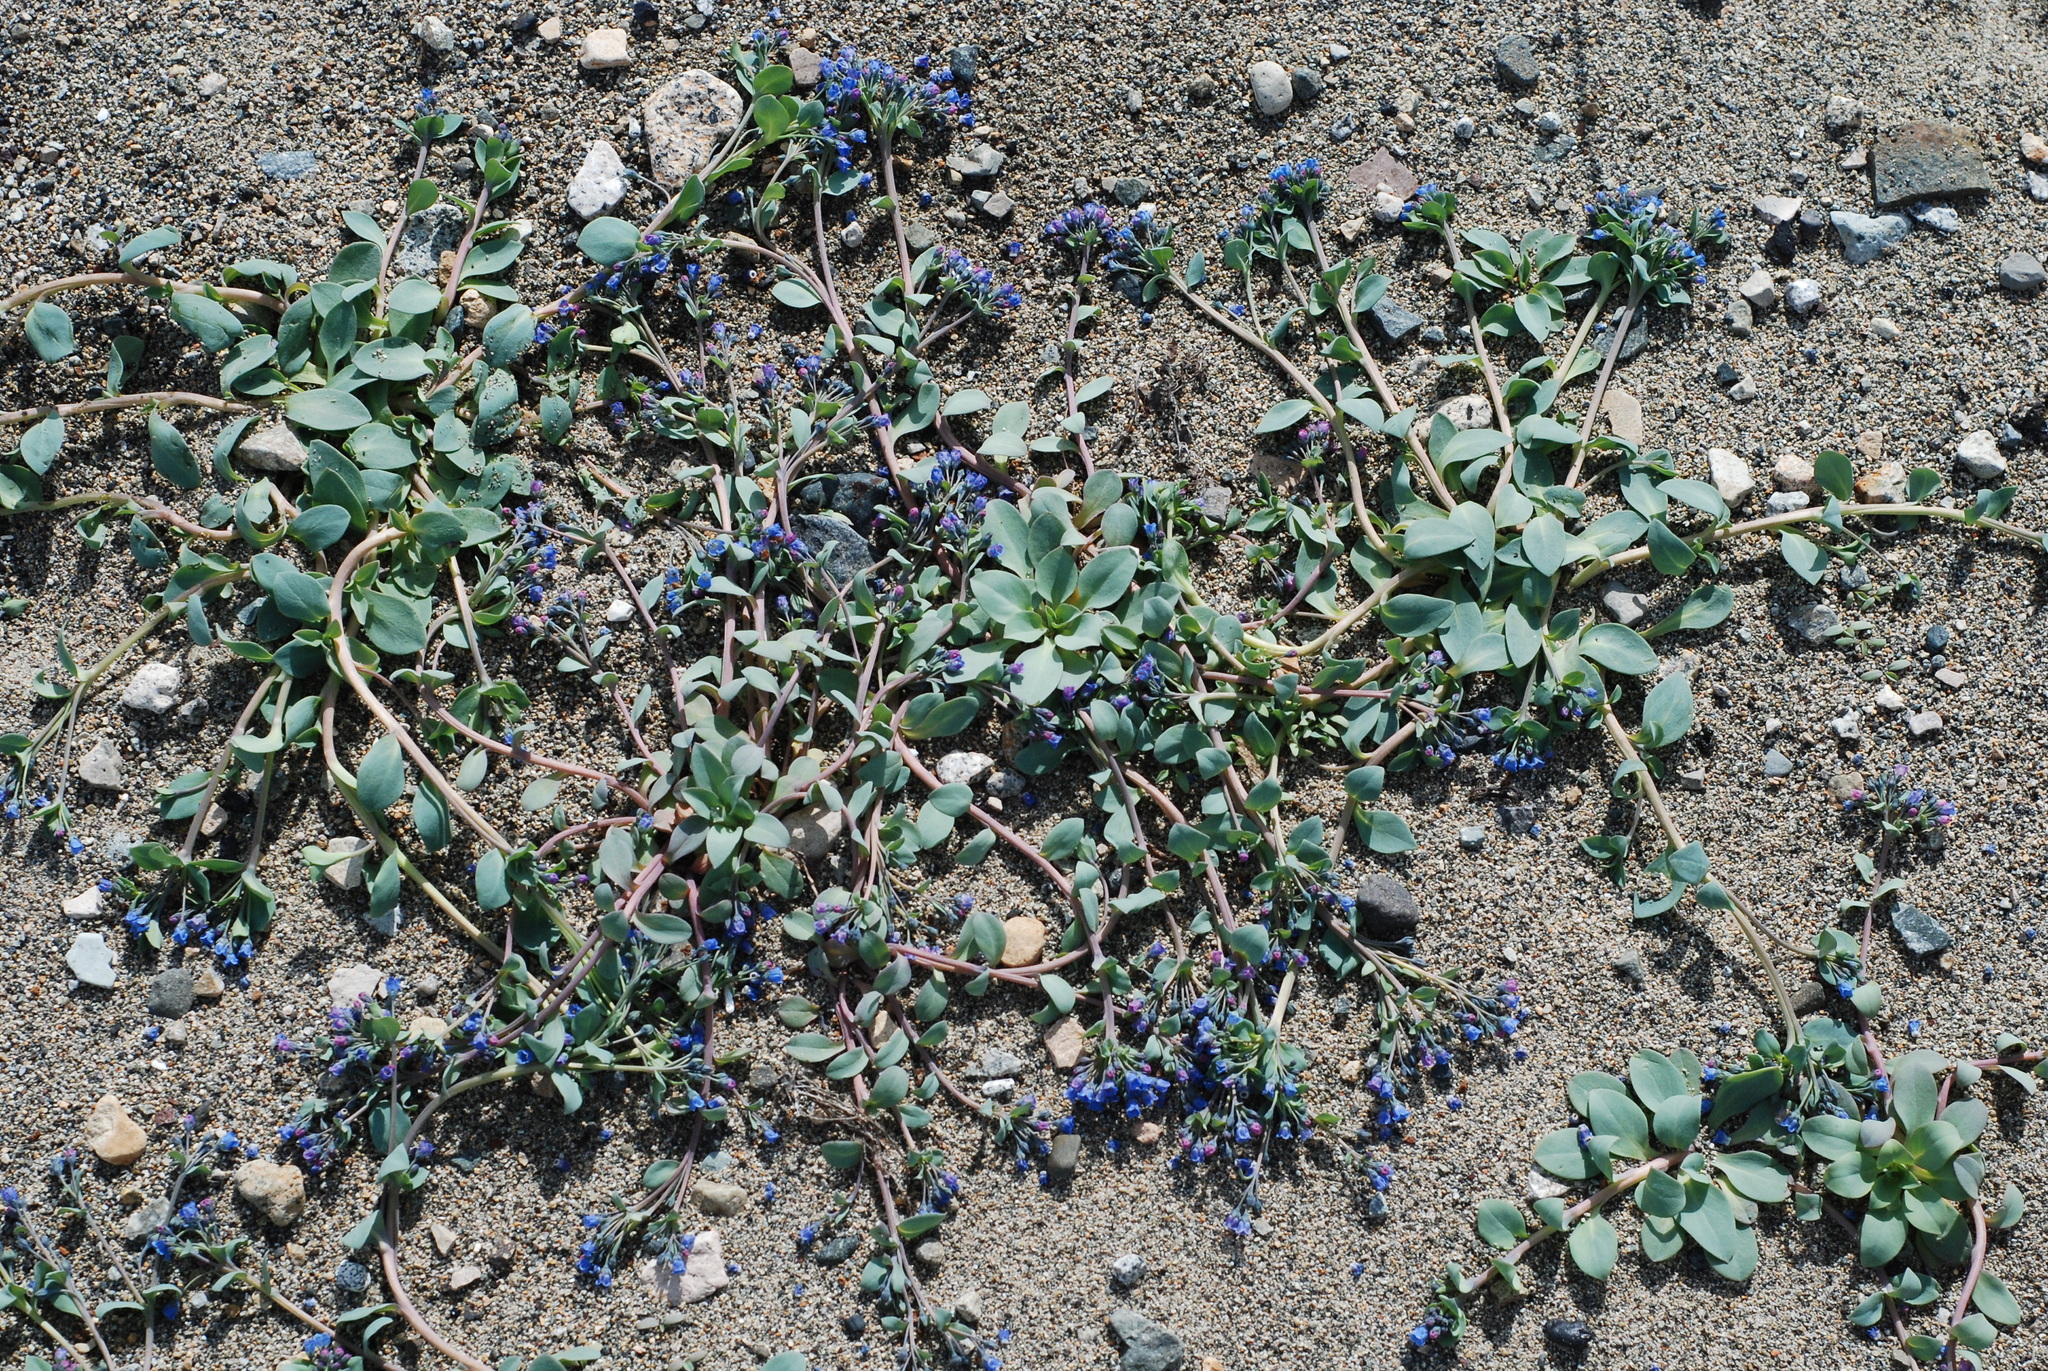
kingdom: Plantae
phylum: Tracheophyta
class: Magnoliopsida
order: Boraginales
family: Boraginaceae
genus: Mertensia
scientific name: Mertensia maritima
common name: Oysterplant
